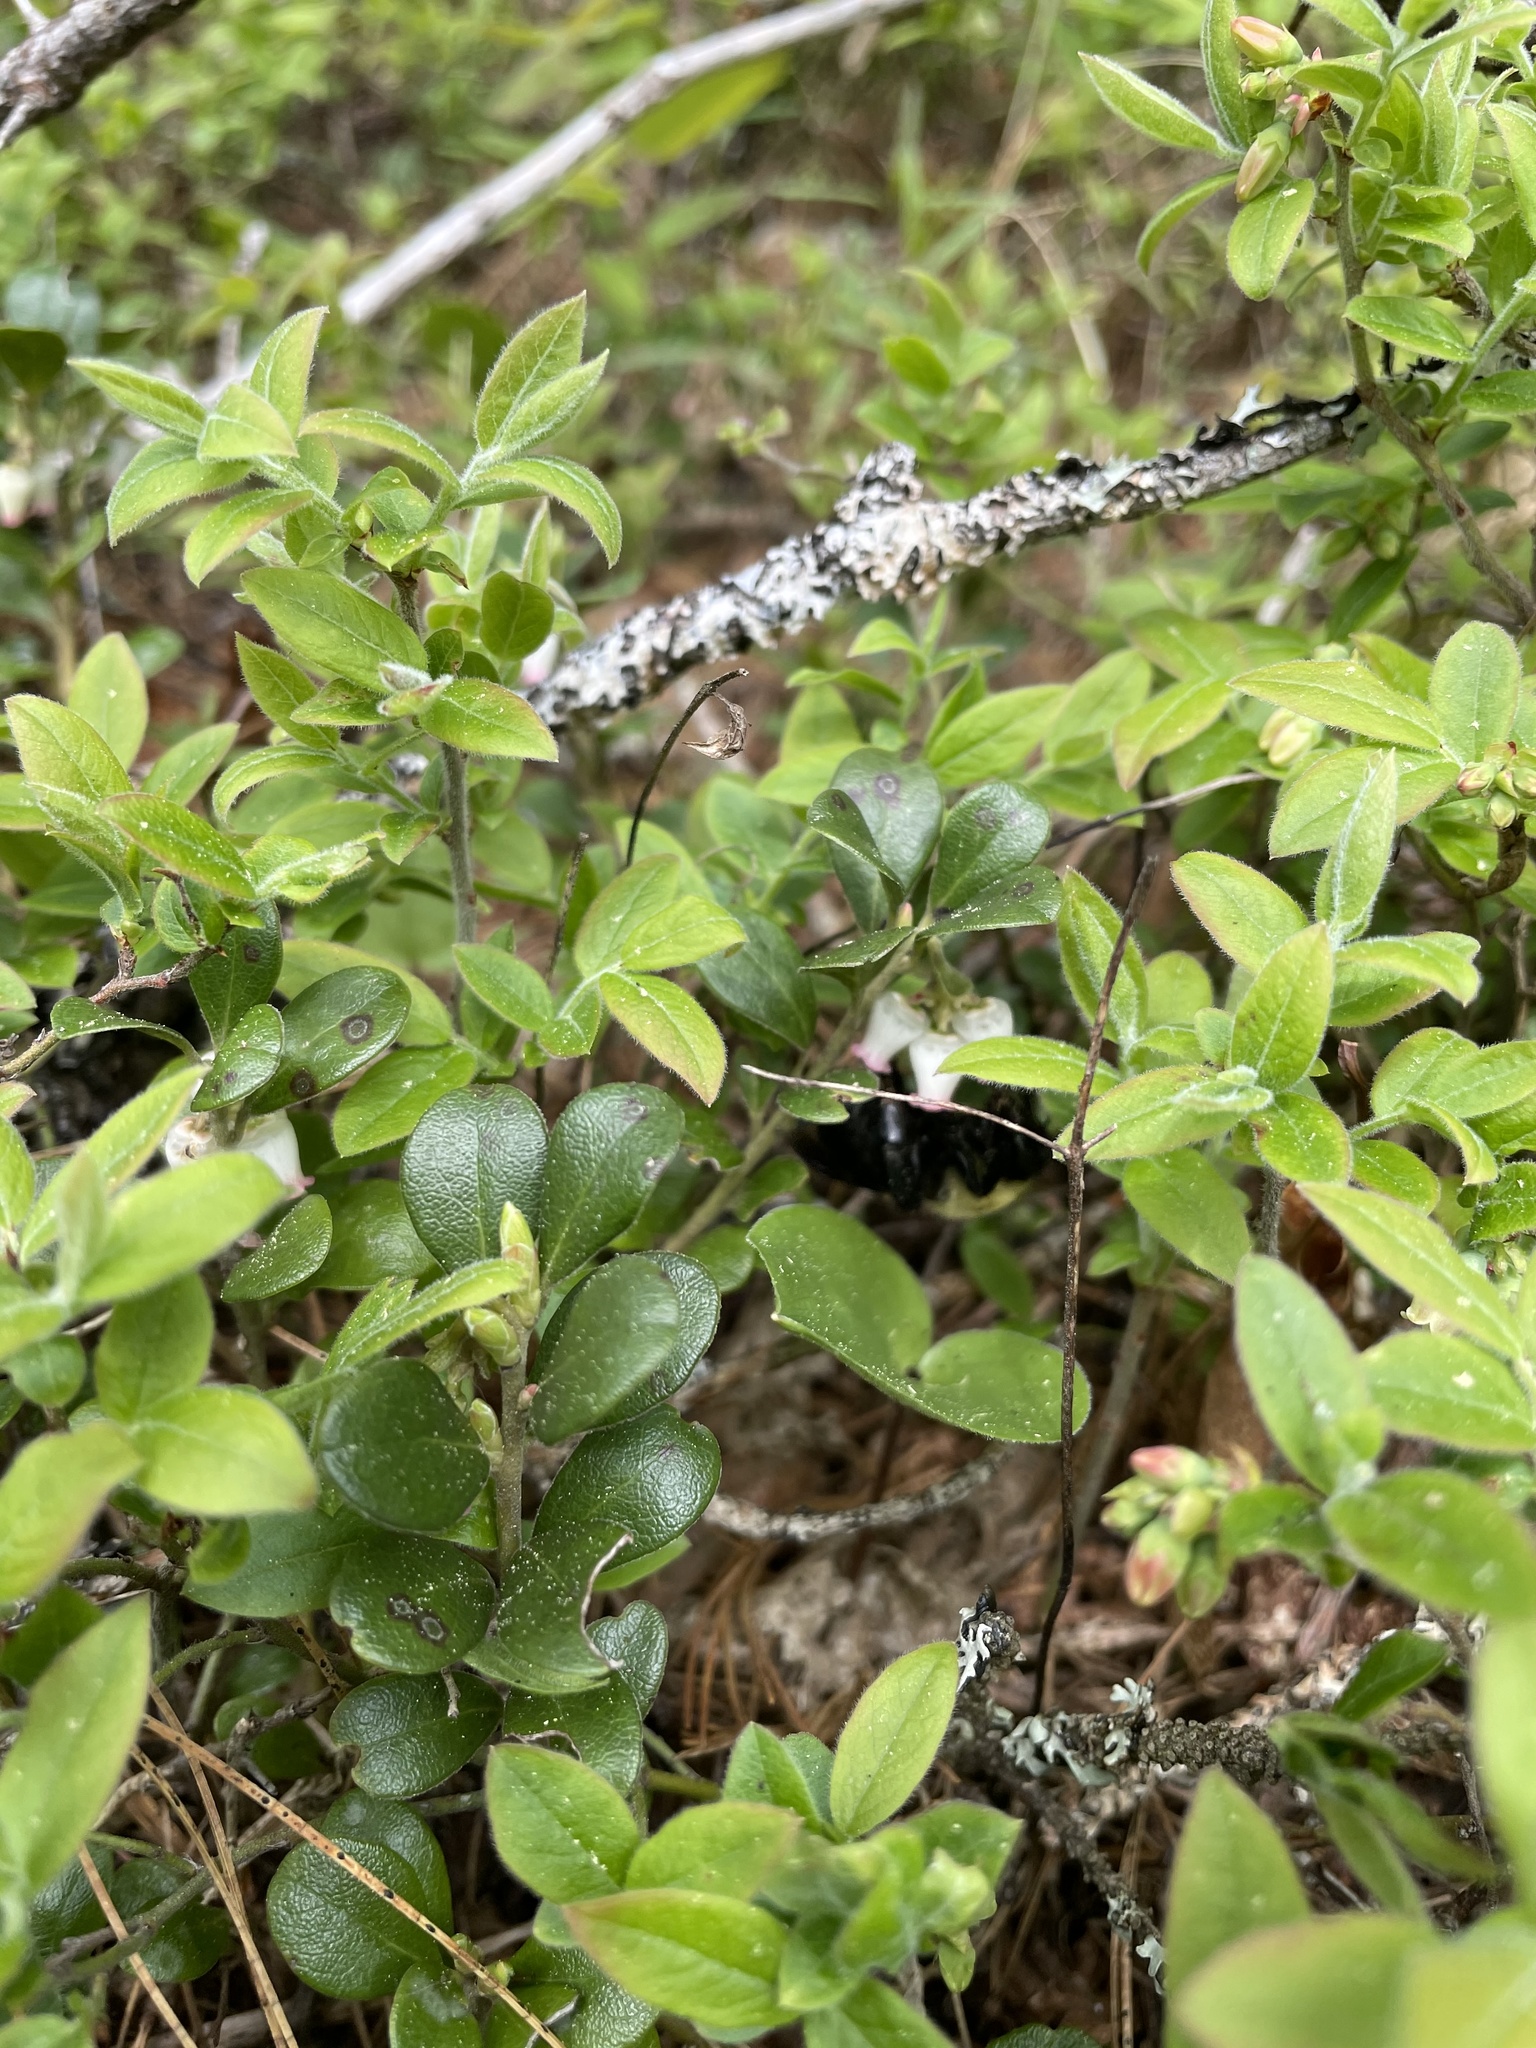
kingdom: Animalia
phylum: Arthropoda
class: Insecta
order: Hymenoptera
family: Apidae
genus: Bombus
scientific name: Bombus griseocollis
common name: Brown-belted bumble bee
